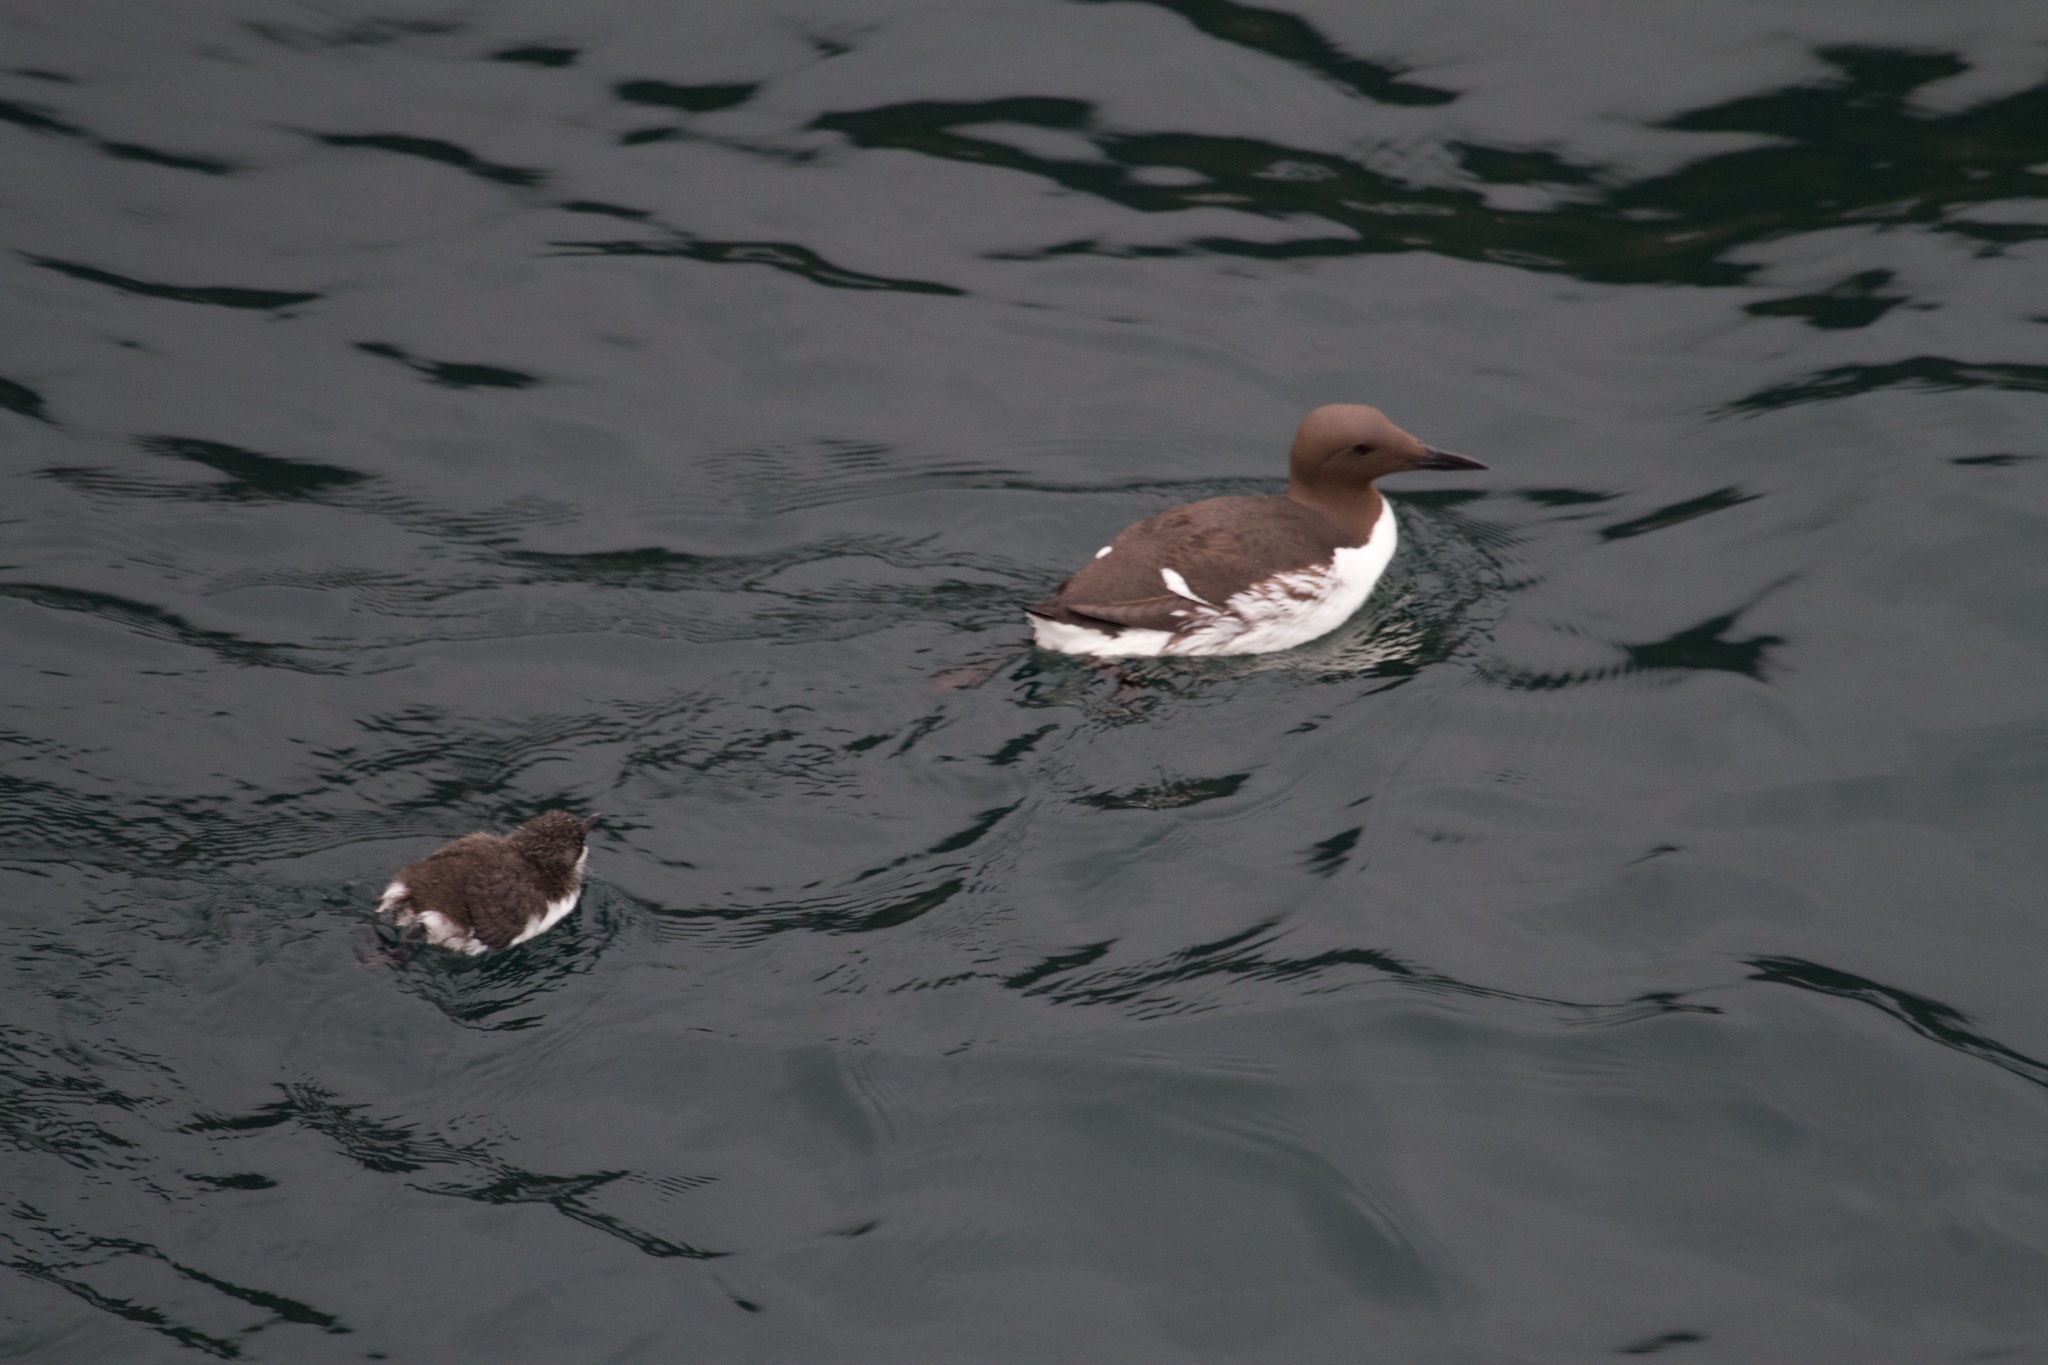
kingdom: Animalia
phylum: Chordata
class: Aves
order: Charadriiformes
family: Alcidae
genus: Uria
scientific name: Uria aalge
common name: Common murre
